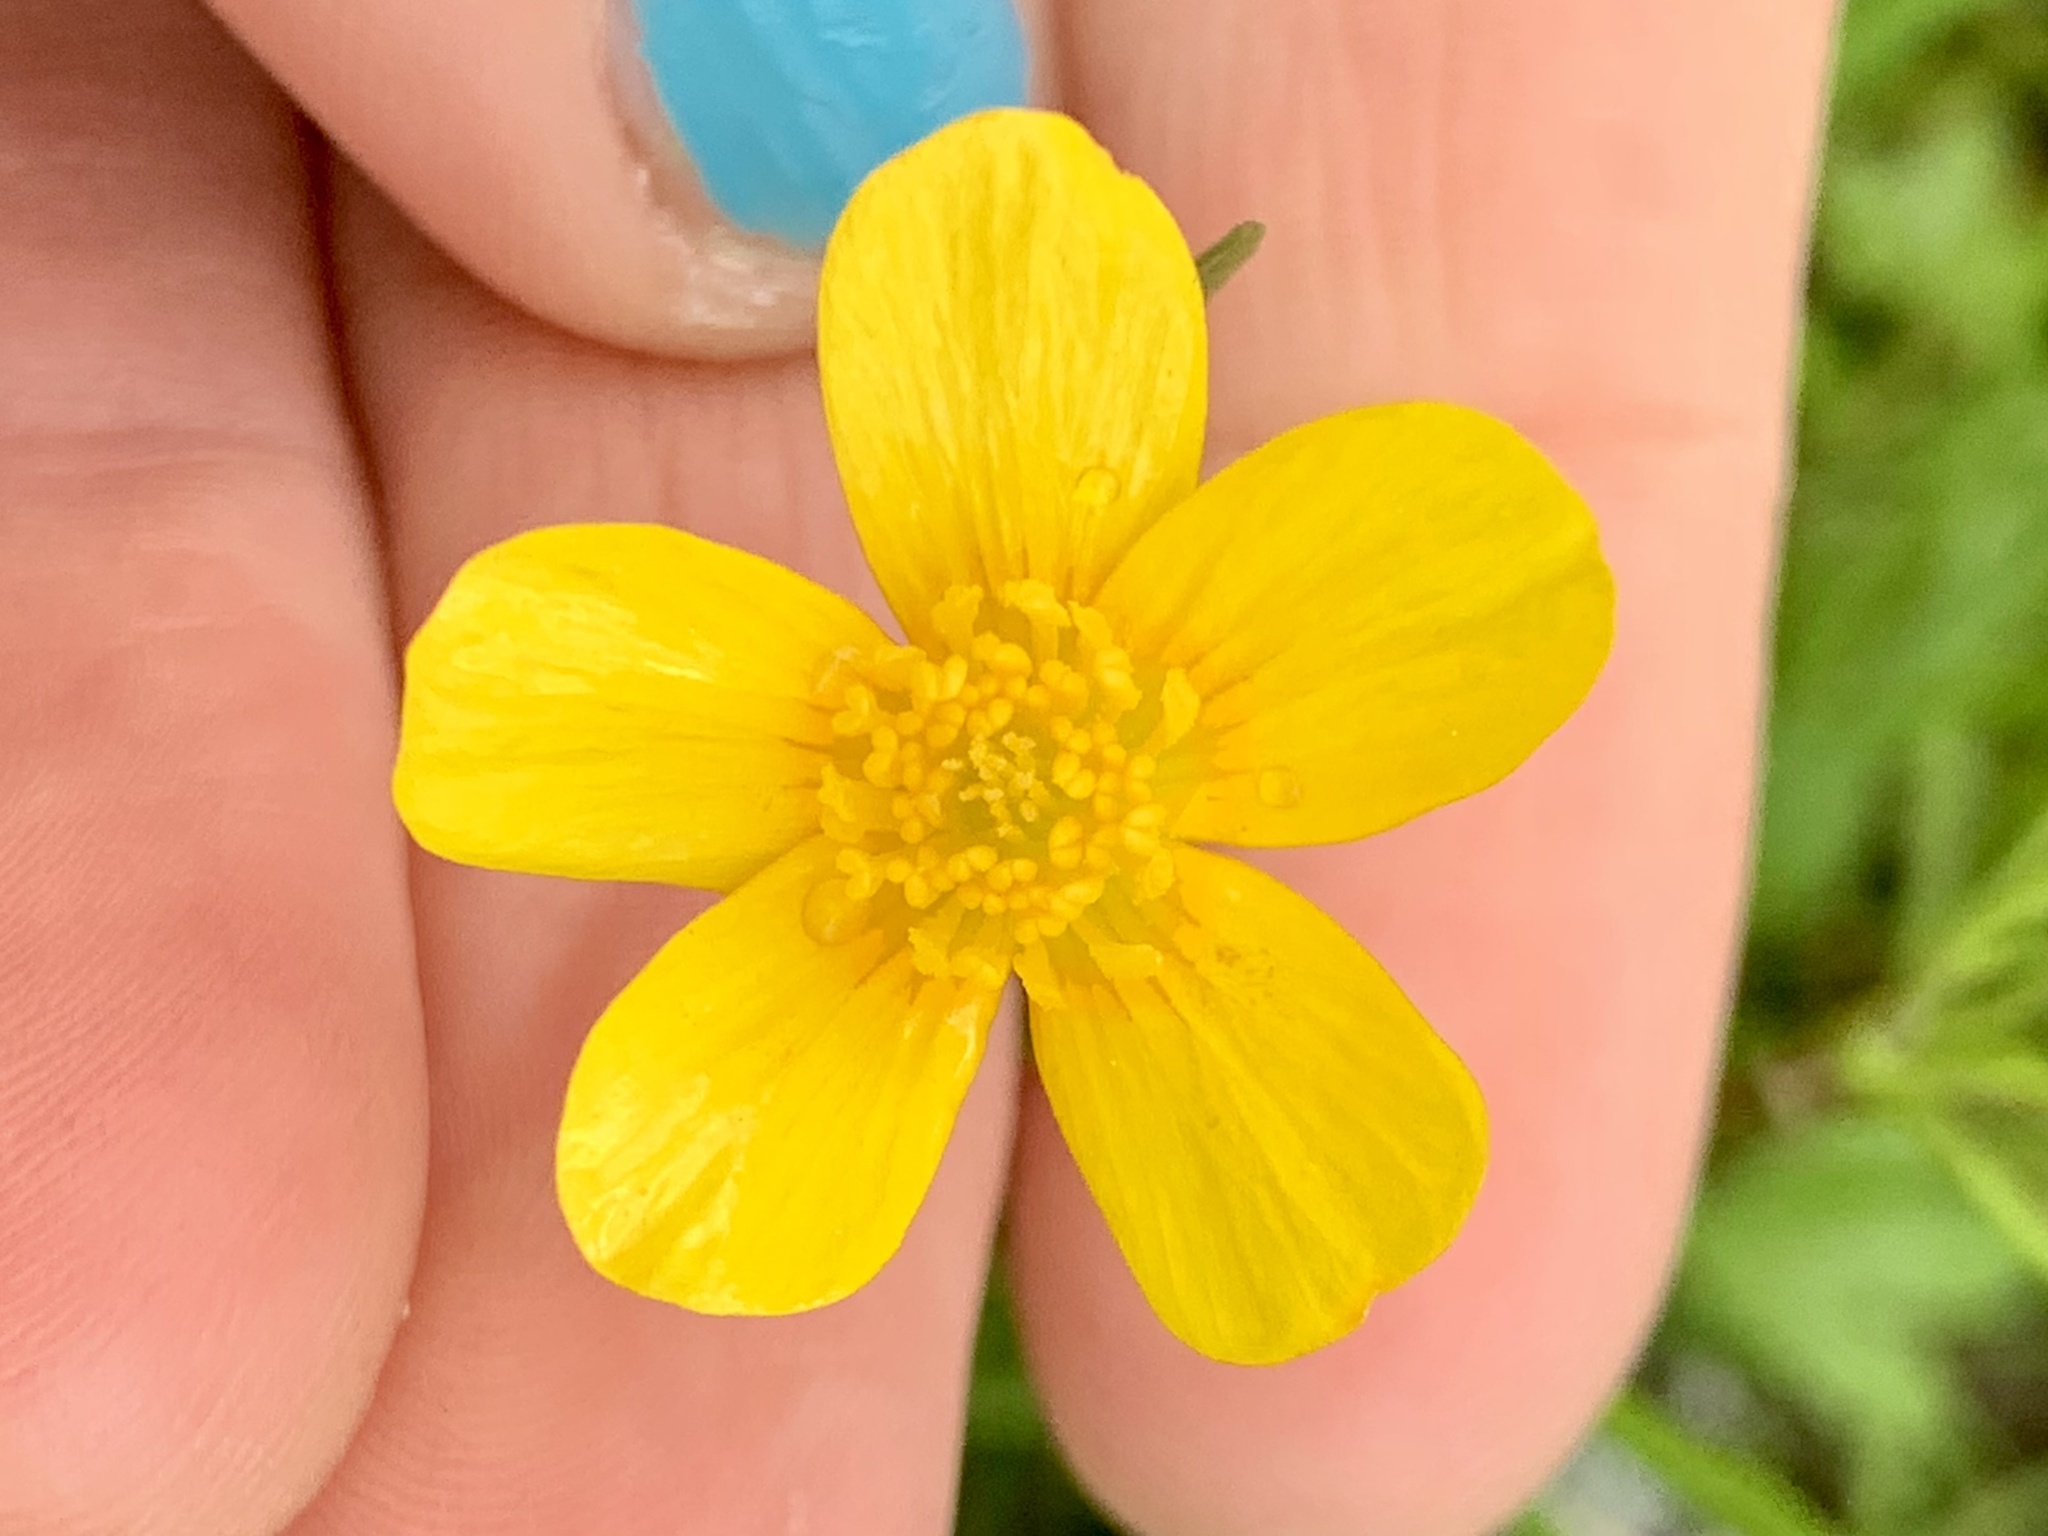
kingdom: Plantae
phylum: Tracheophyta
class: Magnoliopsida
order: Ranunculales
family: Ranunculaceae
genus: Ranunculus
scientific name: Ranunculus orthorhynchus
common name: Straight-beak buttercup
